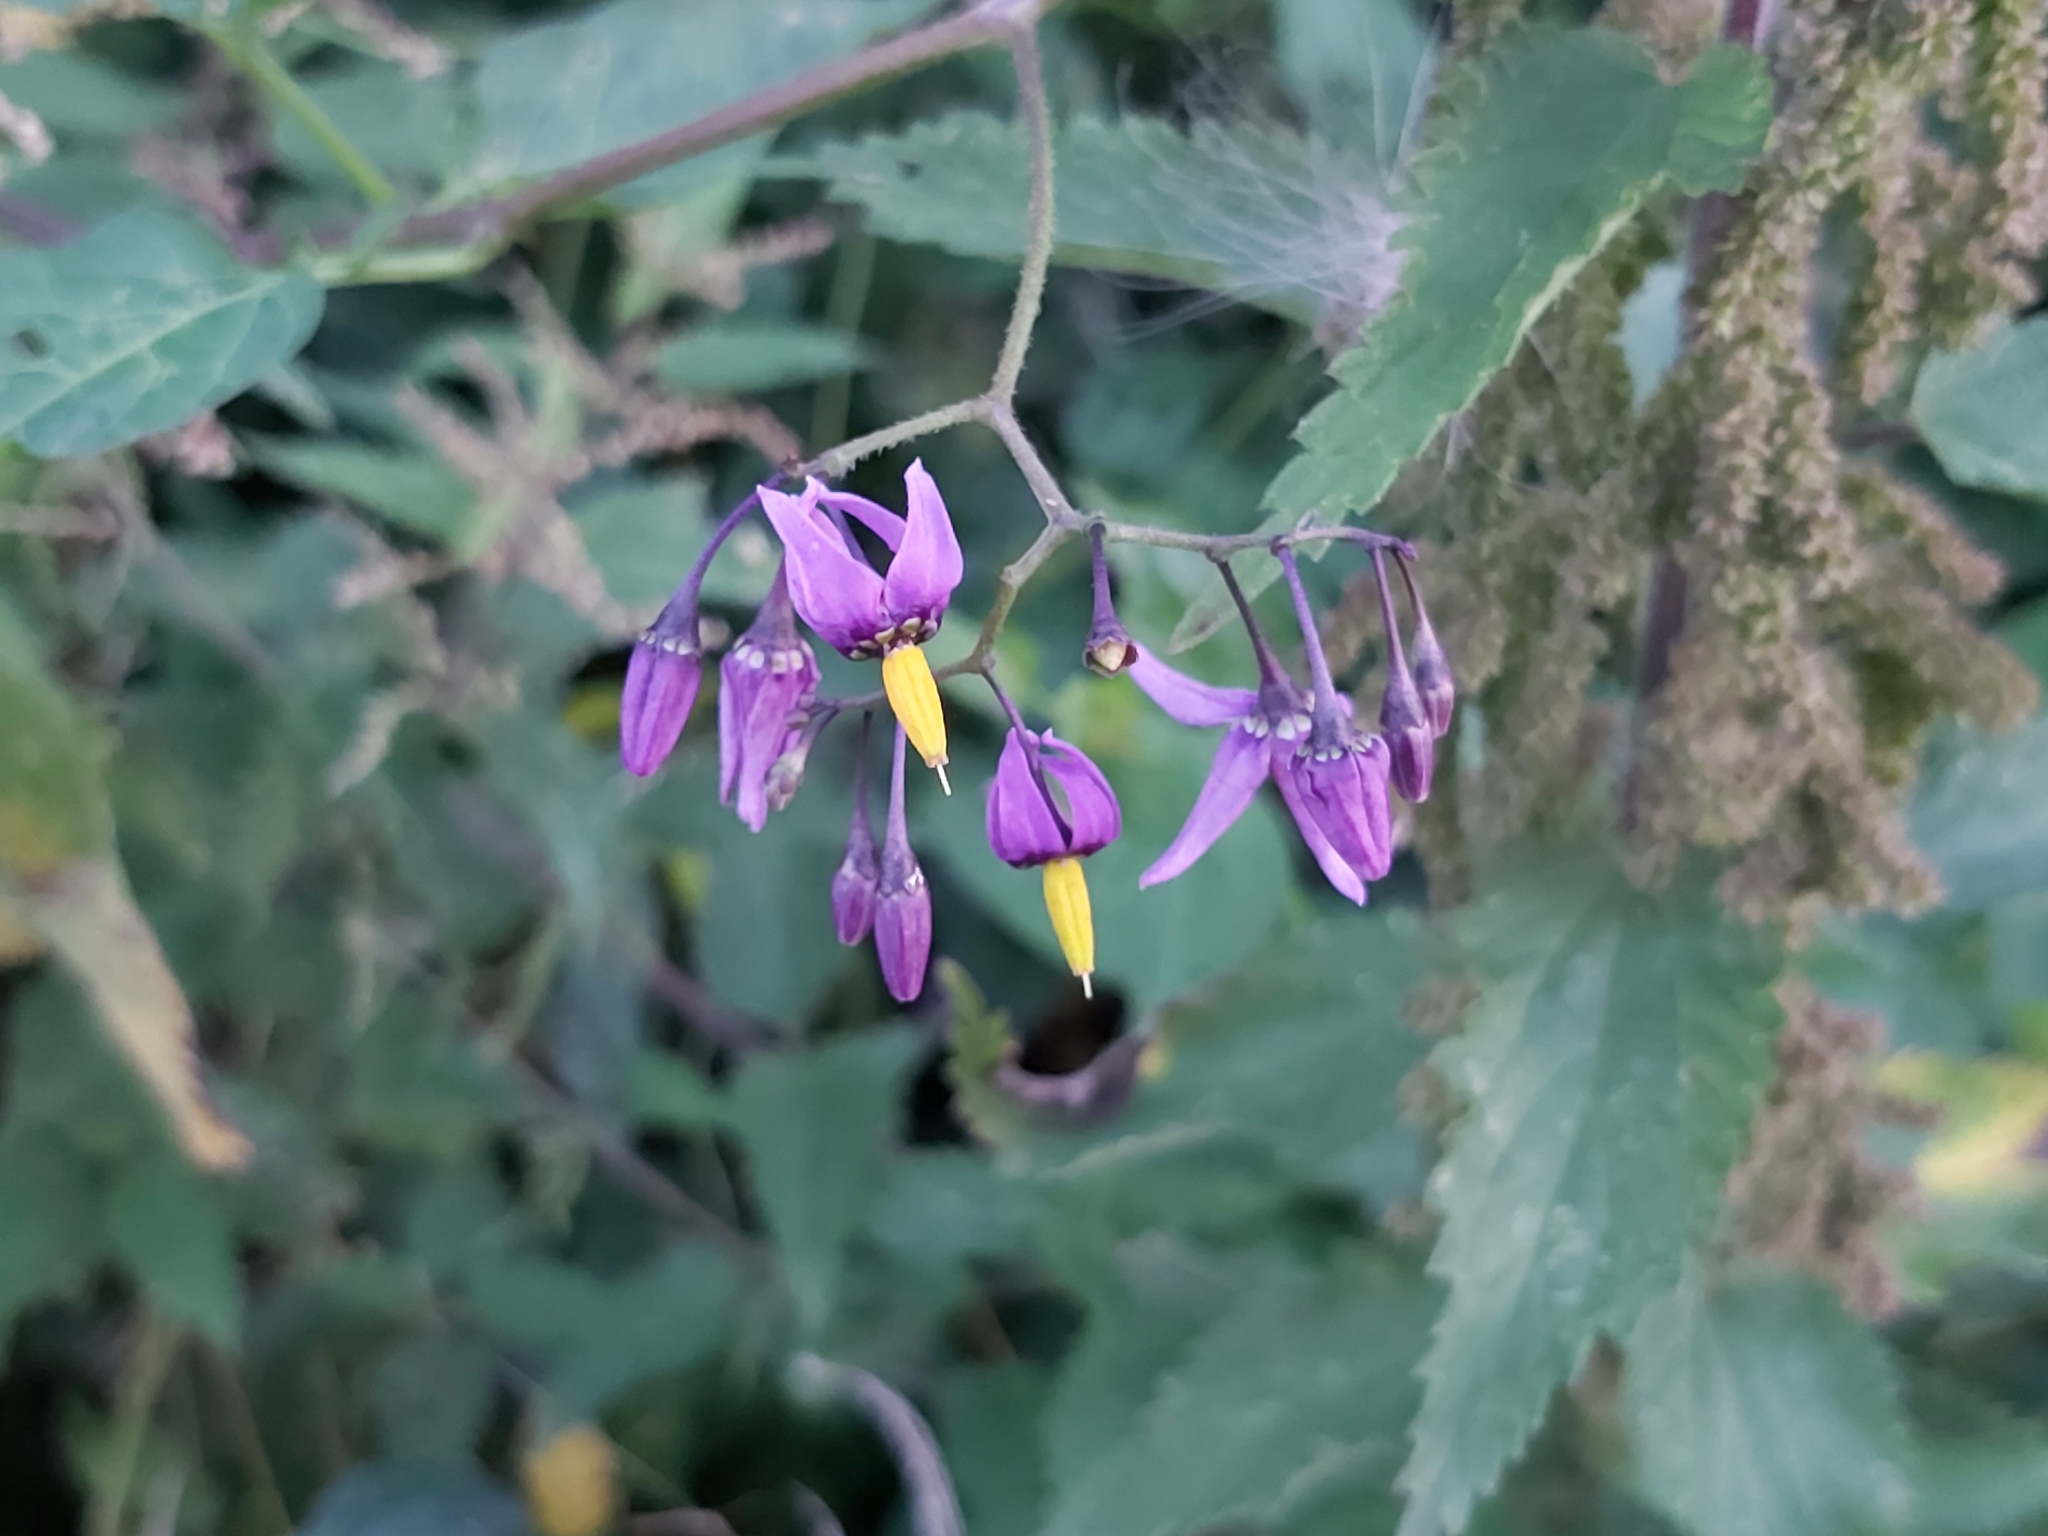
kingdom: Plantae
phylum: Tracheophyta
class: Magnoliopsida
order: Solanales
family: Solanaceae
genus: Solanum
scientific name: Solanum dulcamara
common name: Climbing nightshade
